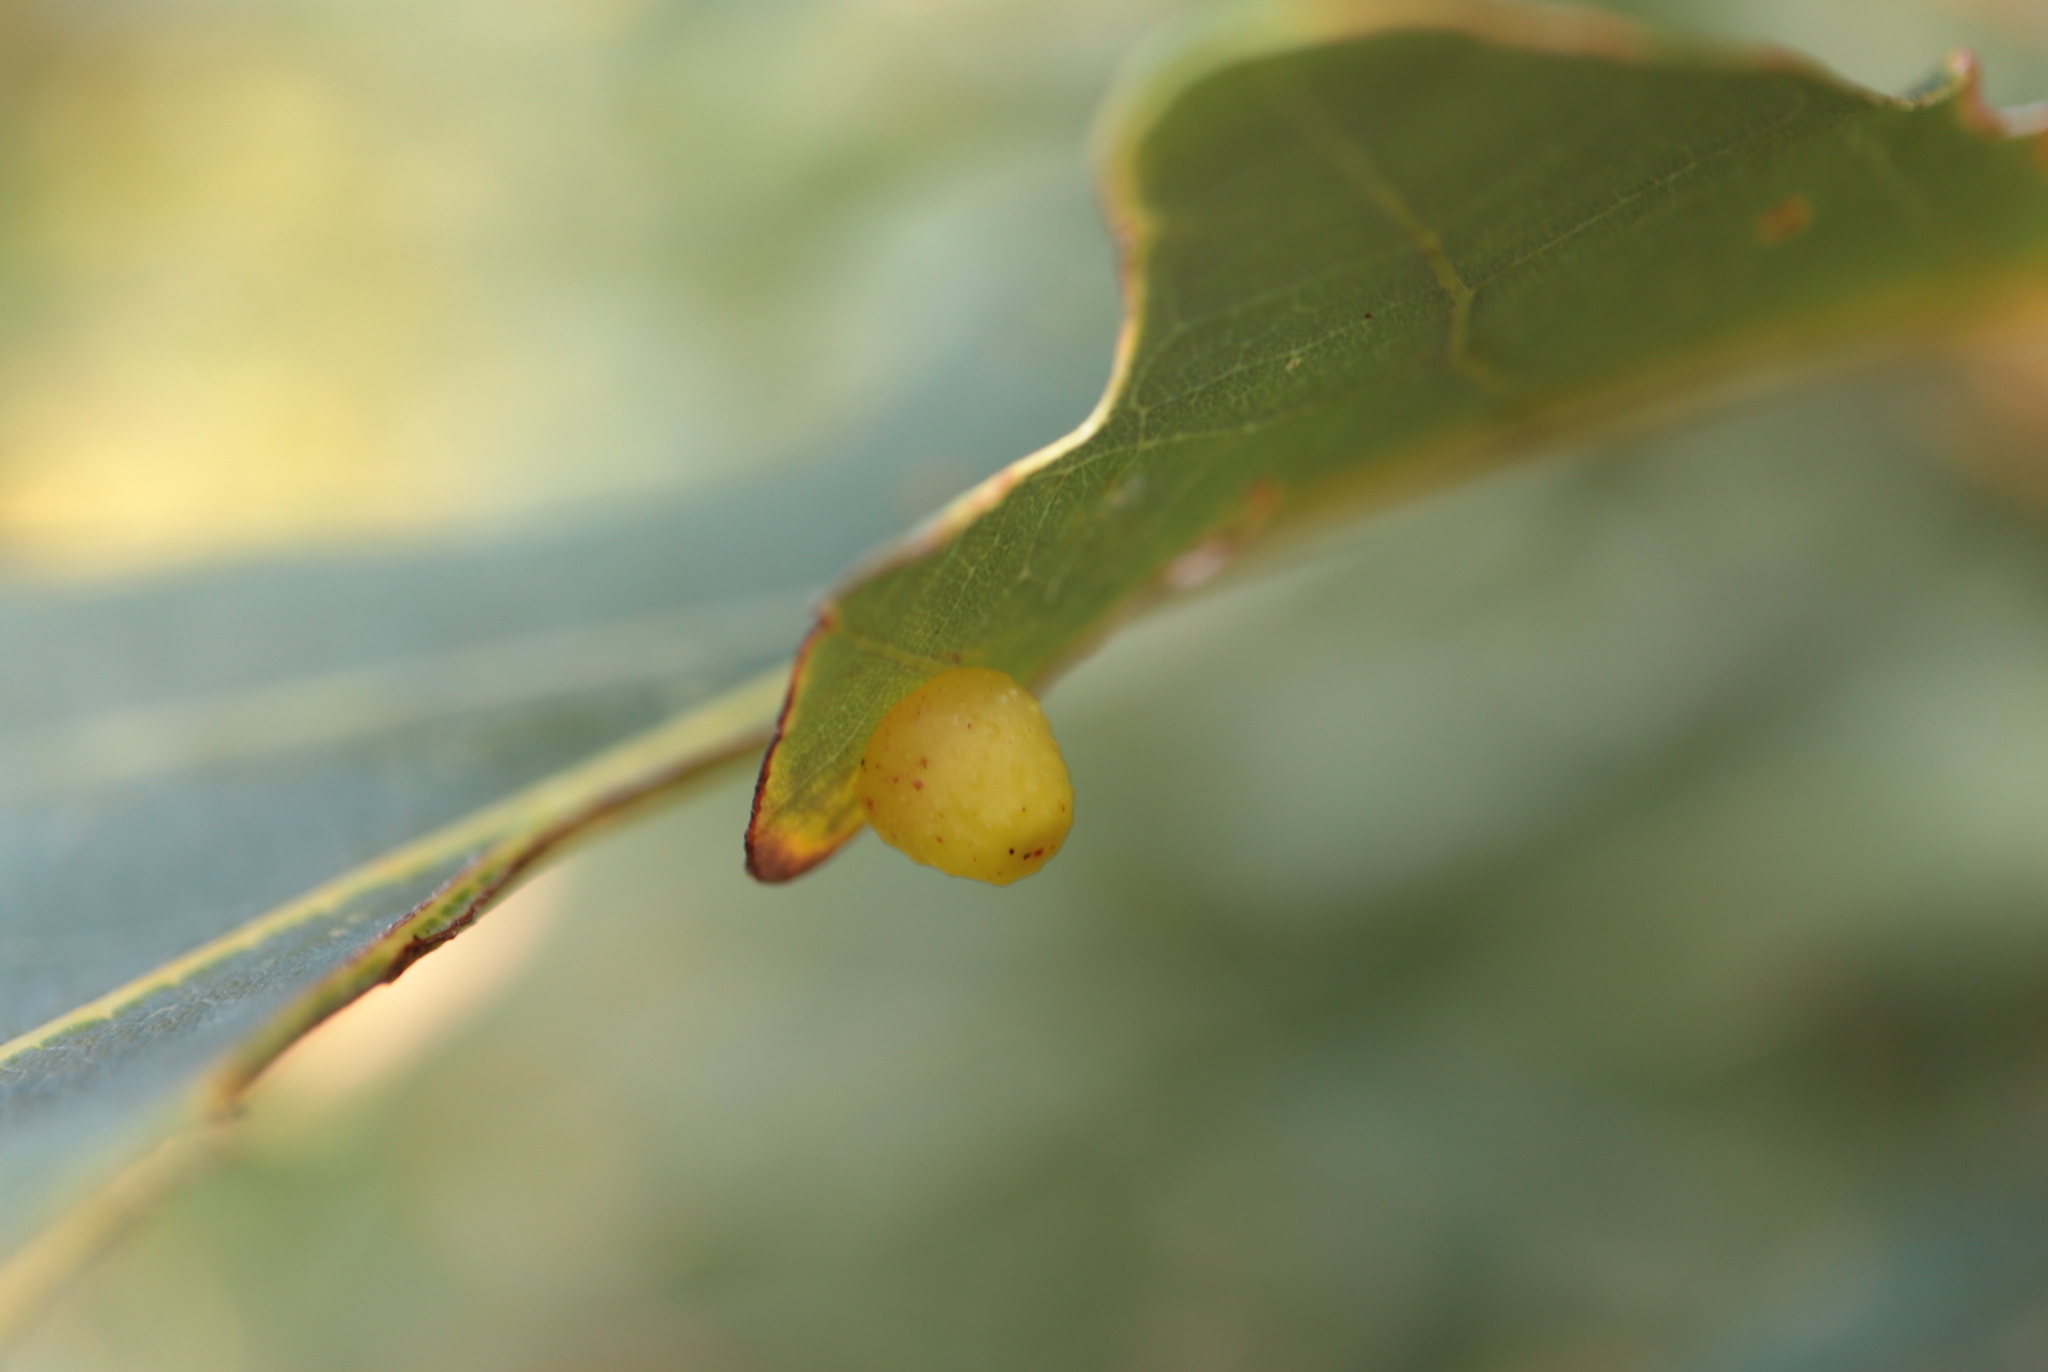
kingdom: Animalia
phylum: Arthropoda
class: Insecta
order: Hymenoptera
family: Cynipidae
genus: Andricus
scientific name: Andricus
